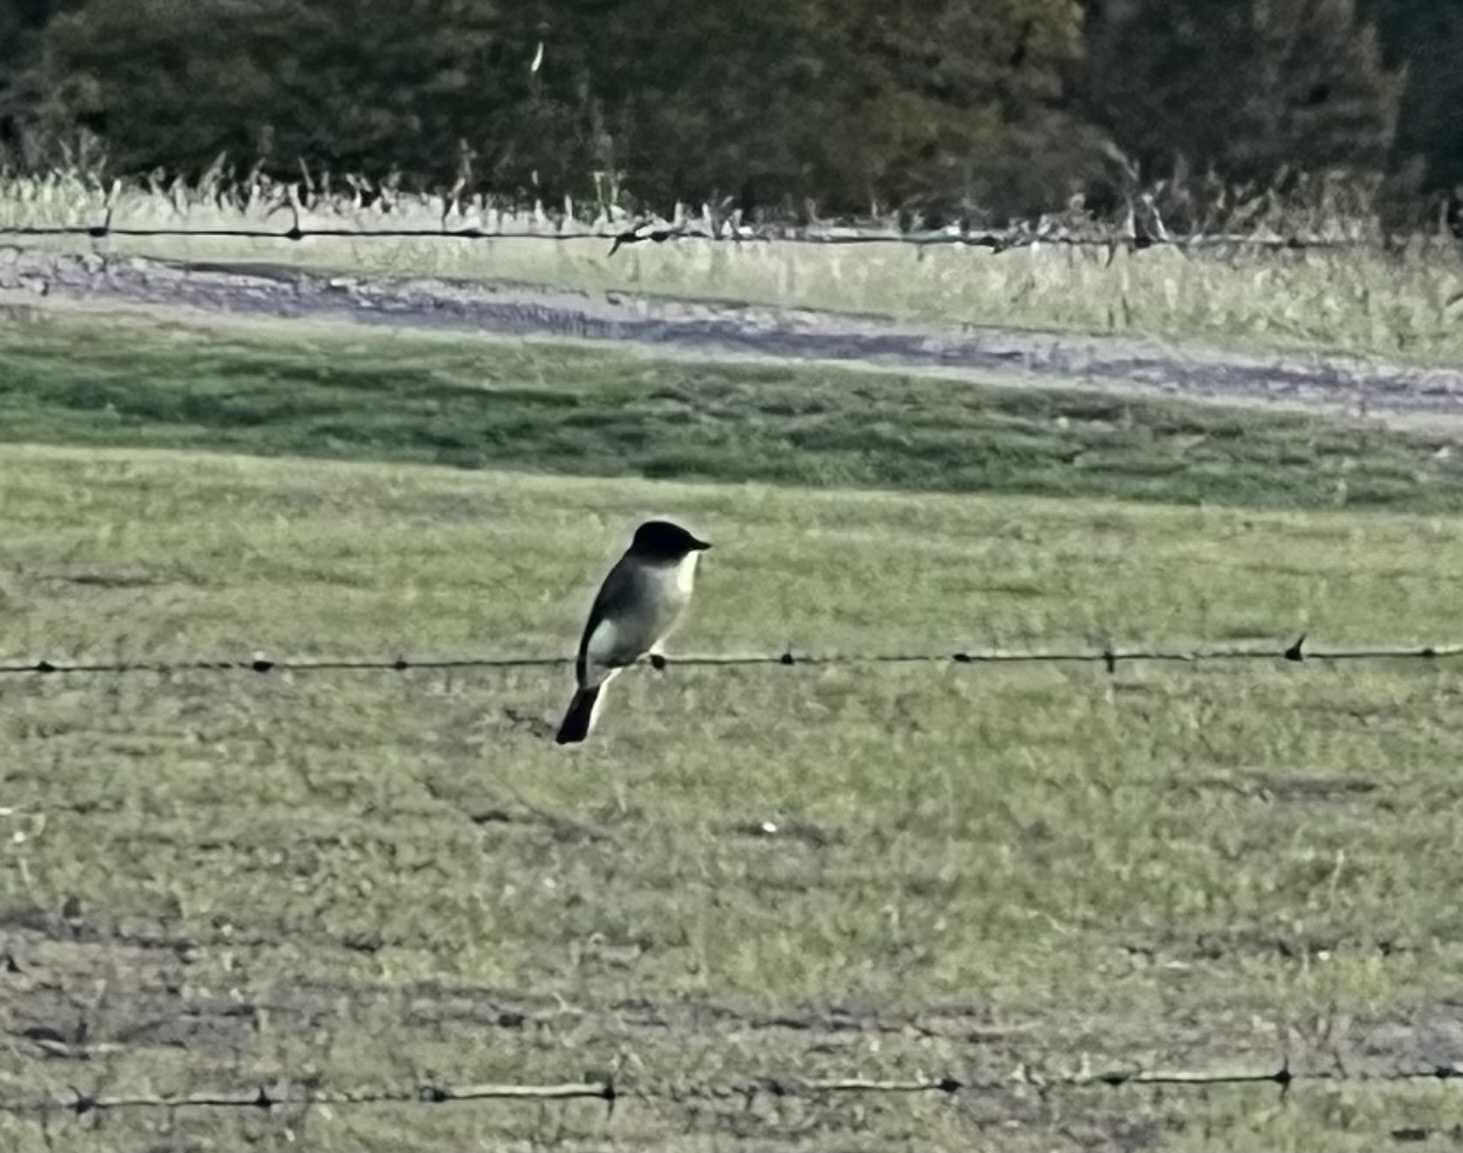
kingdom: Animalia
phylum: Chordata
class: Aves
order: Passeriformes
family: Tyrannidae
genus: Sayornis
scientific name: Sayornis phoebe
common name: Eastern phoebe
